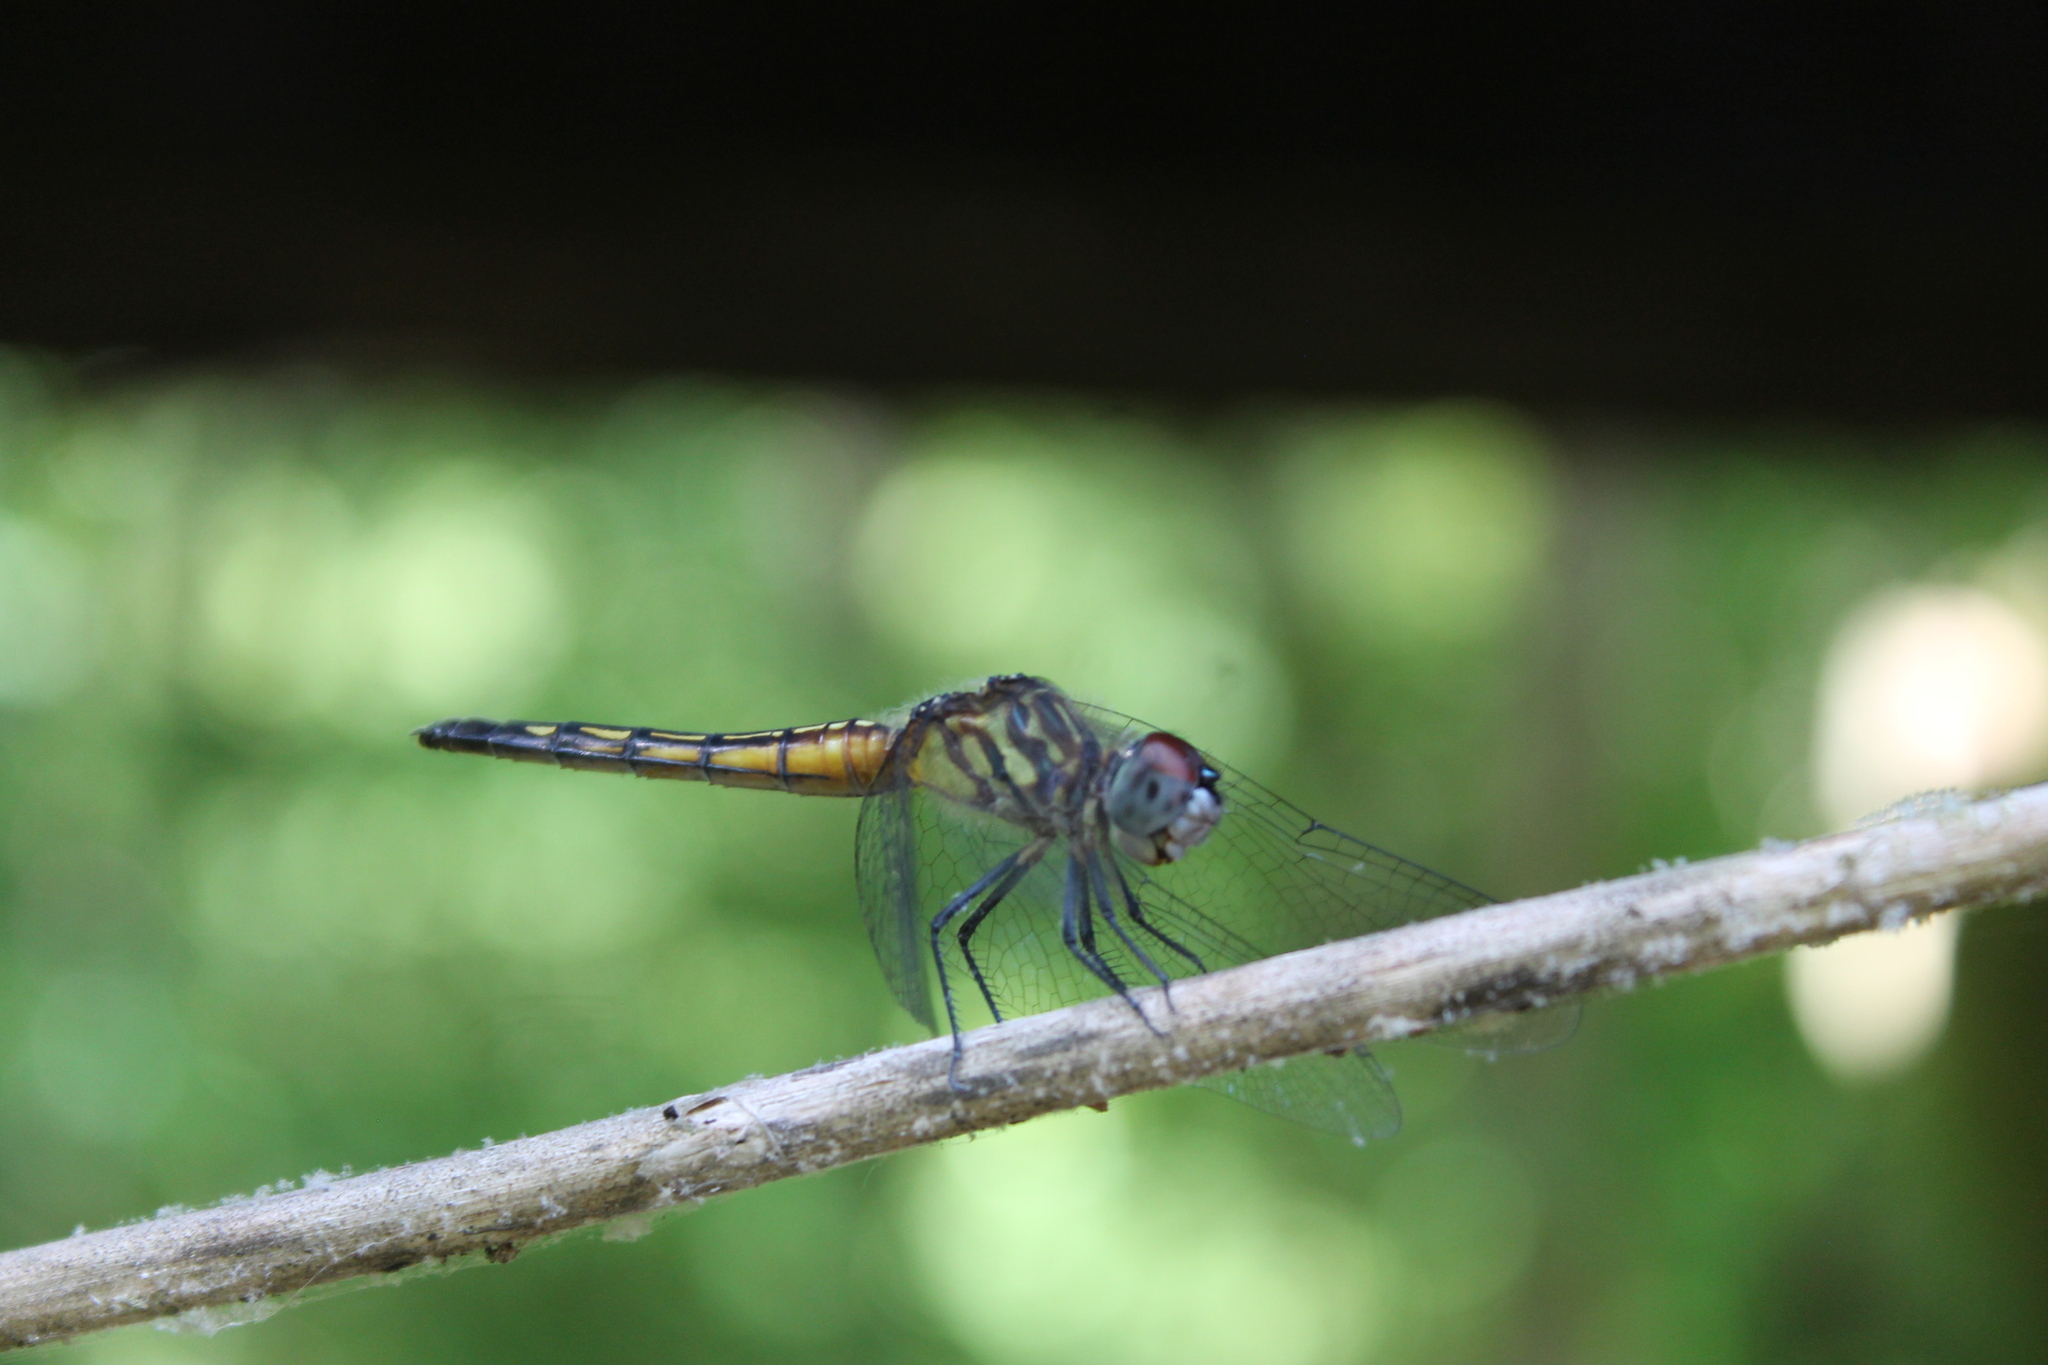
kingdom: Animalia
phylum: Arthropoda
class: Insecta
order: Odonata
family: Libellulidae
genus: Pachydiplax
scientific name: Pachydiplax longipennis
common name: Blue dasher
